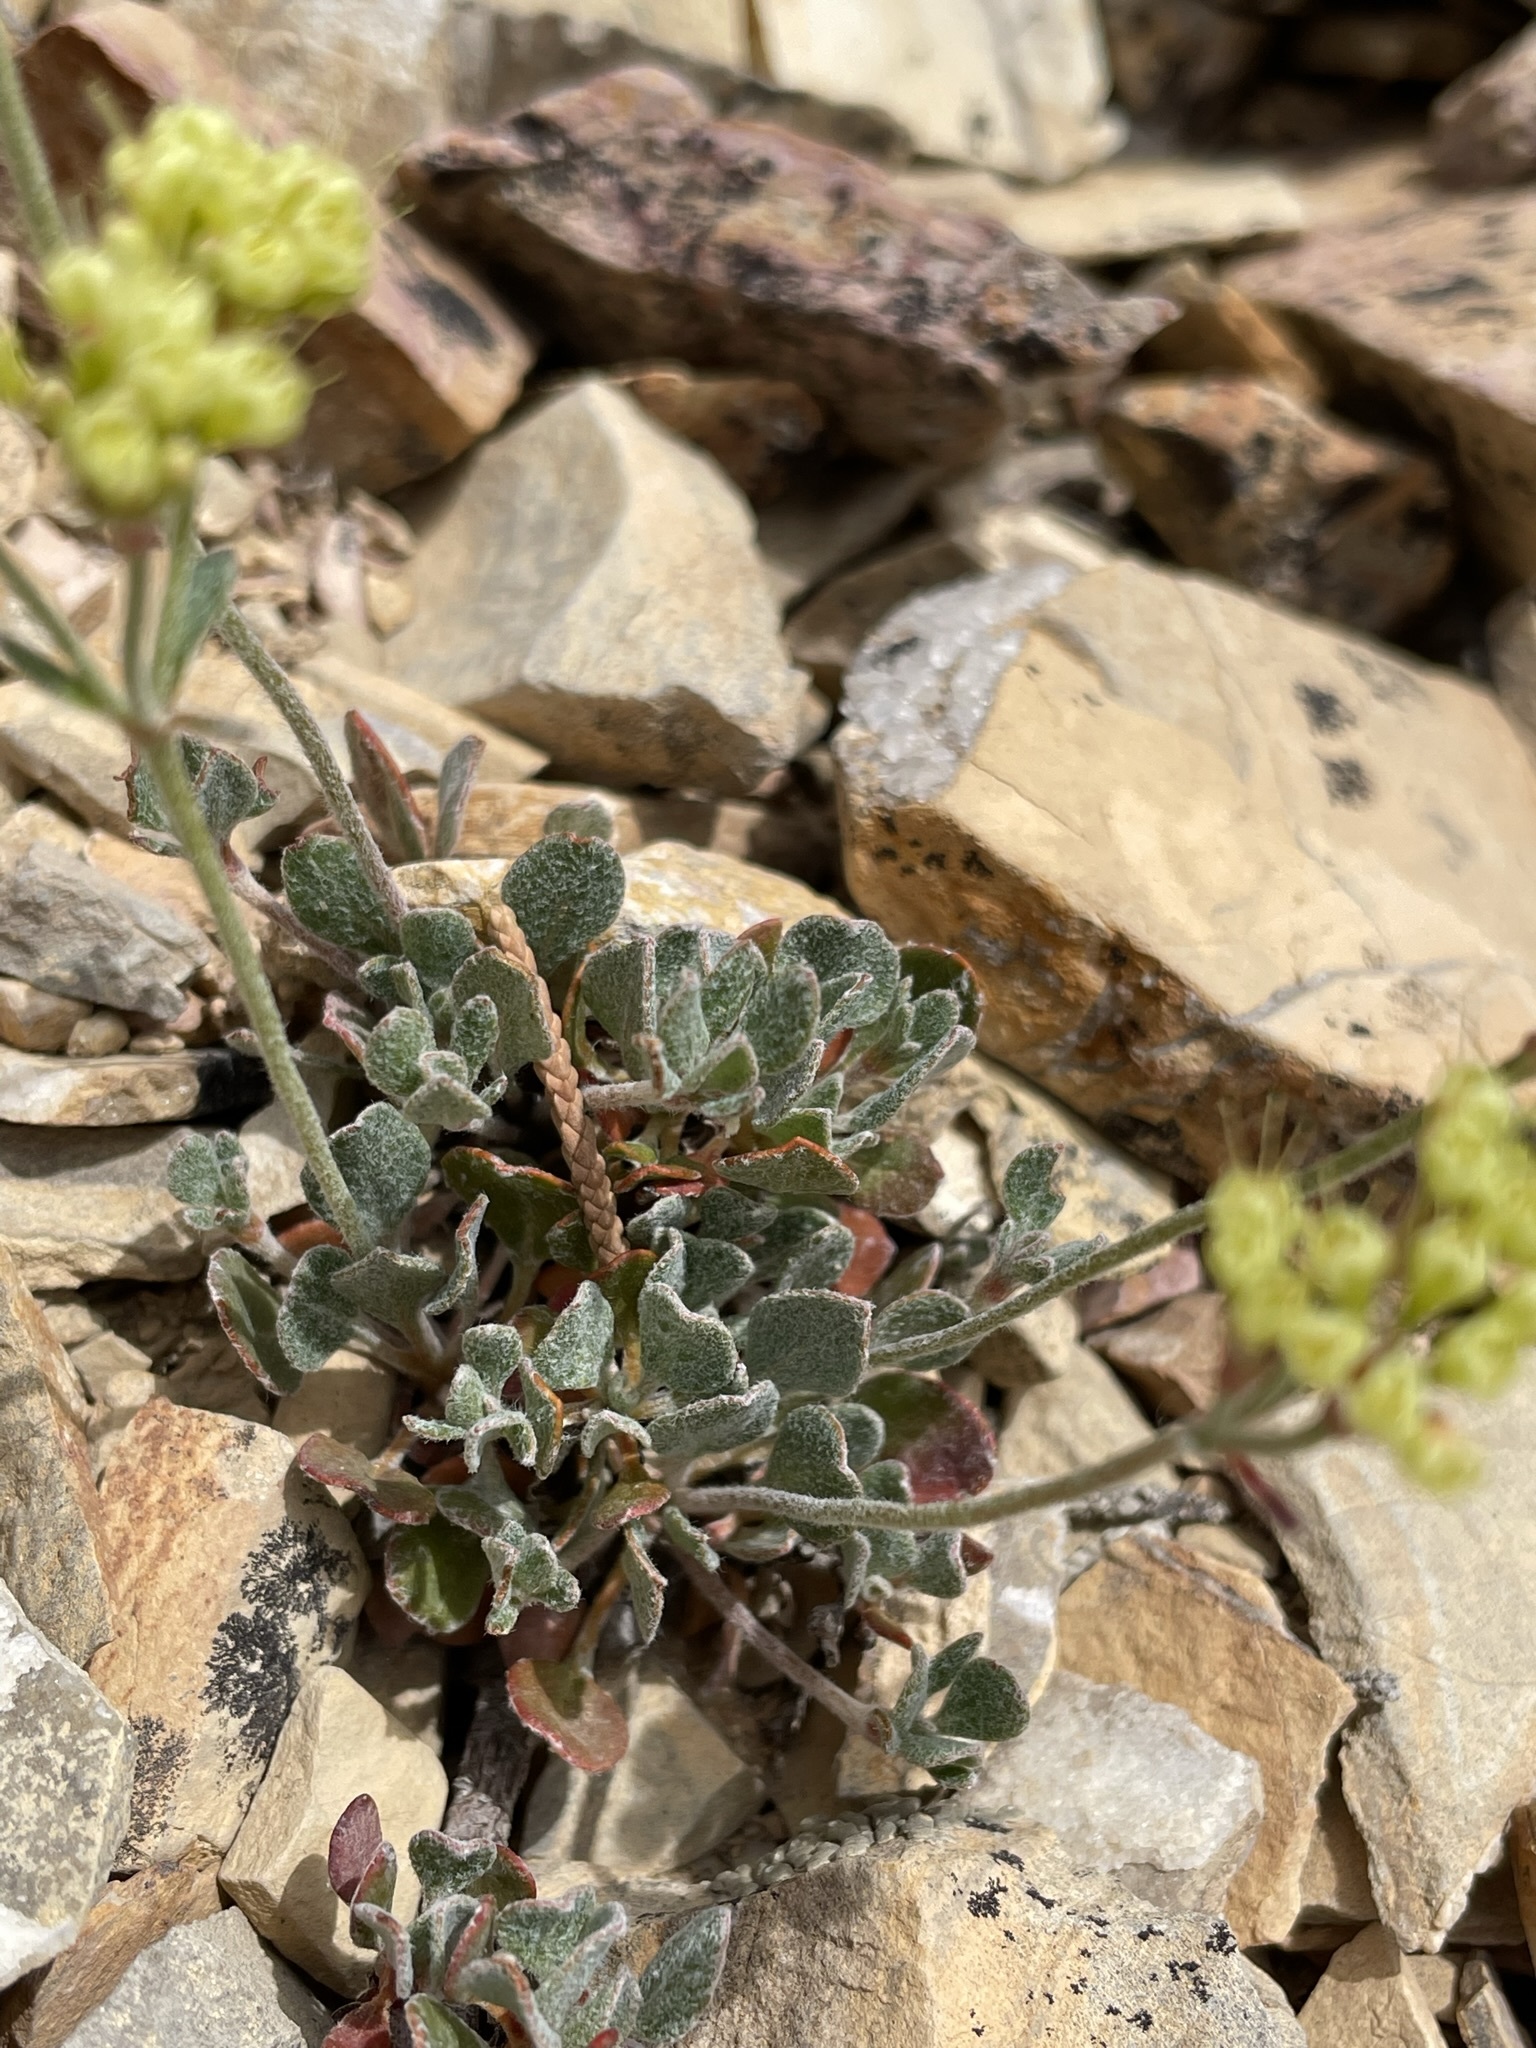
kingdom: Plantae
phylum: Tracheophyta
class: Magnoliopsida
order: Caryophyllales
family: Polygonaceae
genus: Eriogonum
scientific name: Eriogonum umbellatum
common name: Sulfur-buckwheat
